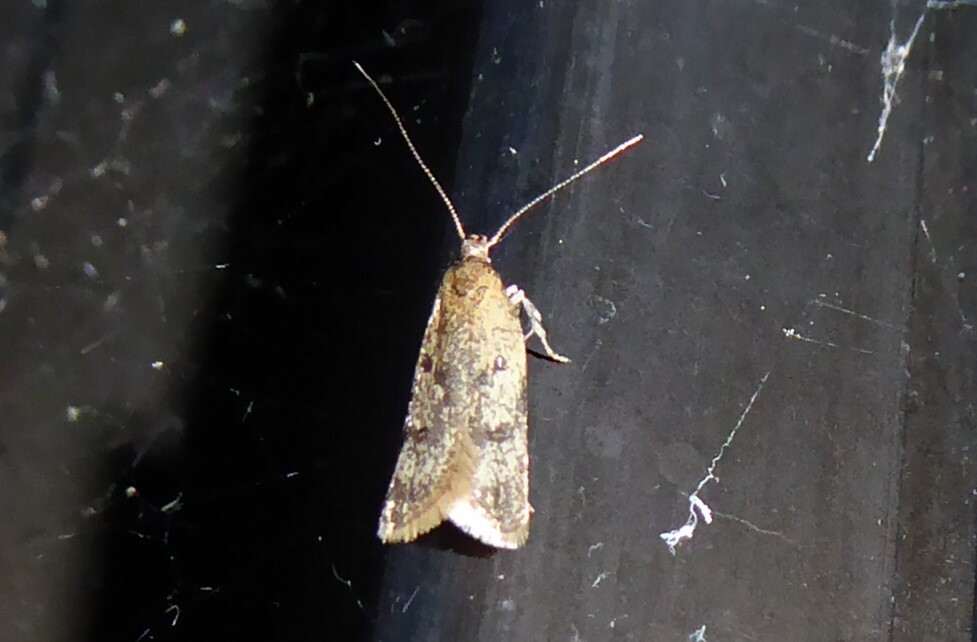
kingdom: Animalia
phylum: Arthropoda
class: Insecta
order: Lepidoptera
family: Oecophoridae
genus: Gymnobathra
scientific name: Gymnobathra tholodella
